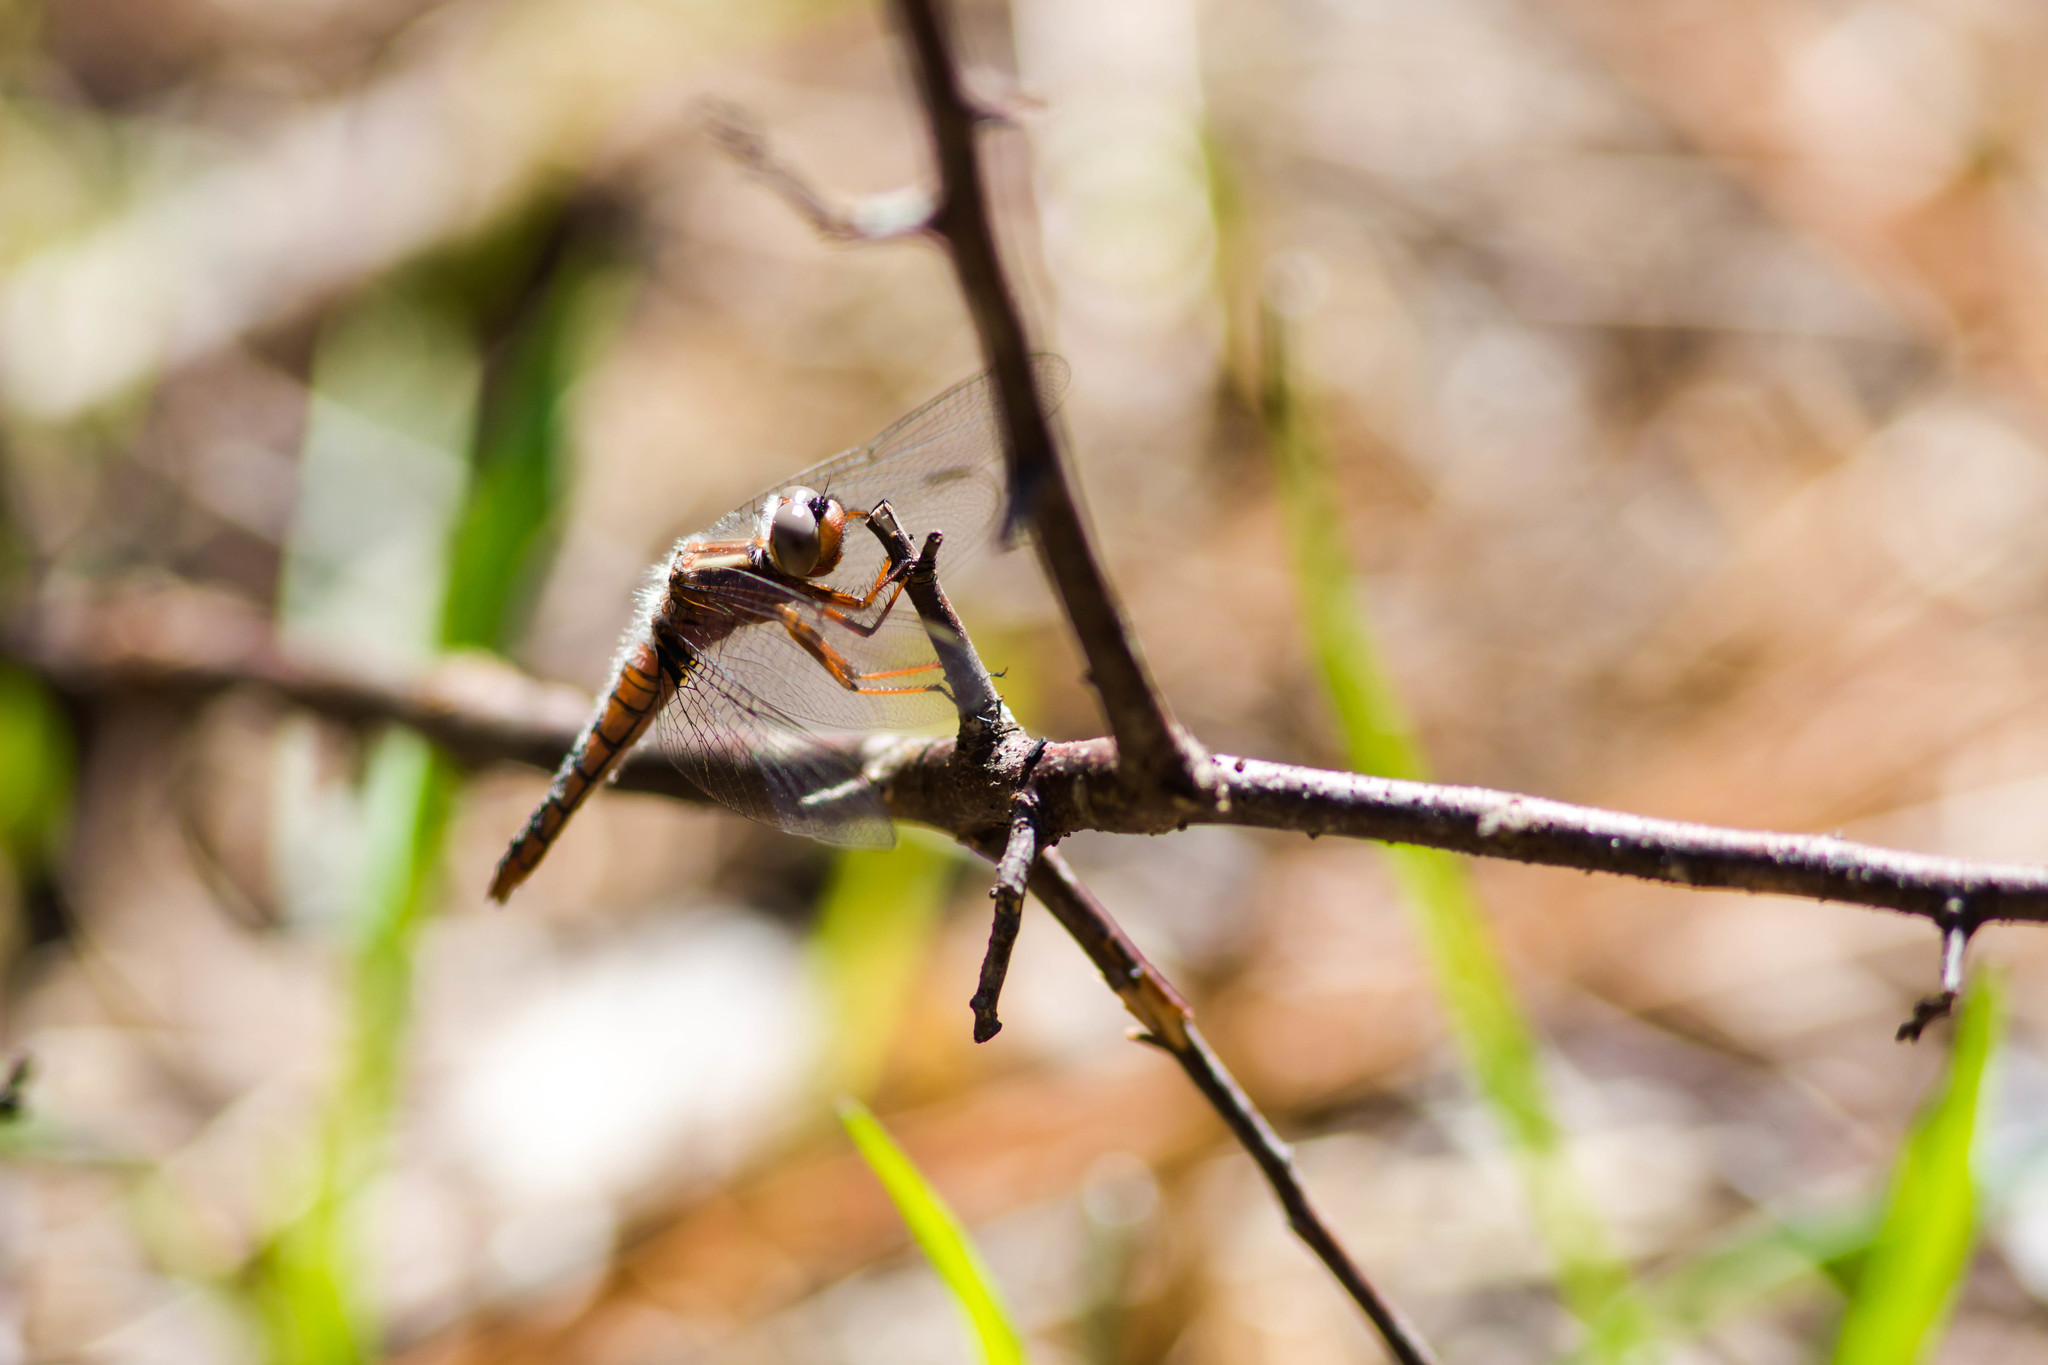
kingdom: Animalia
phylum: Arthropoda
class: Insecta
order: Odonata
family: Libellulidae
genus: Ladona
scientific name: Ladona deplanata
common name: Blue corporal
